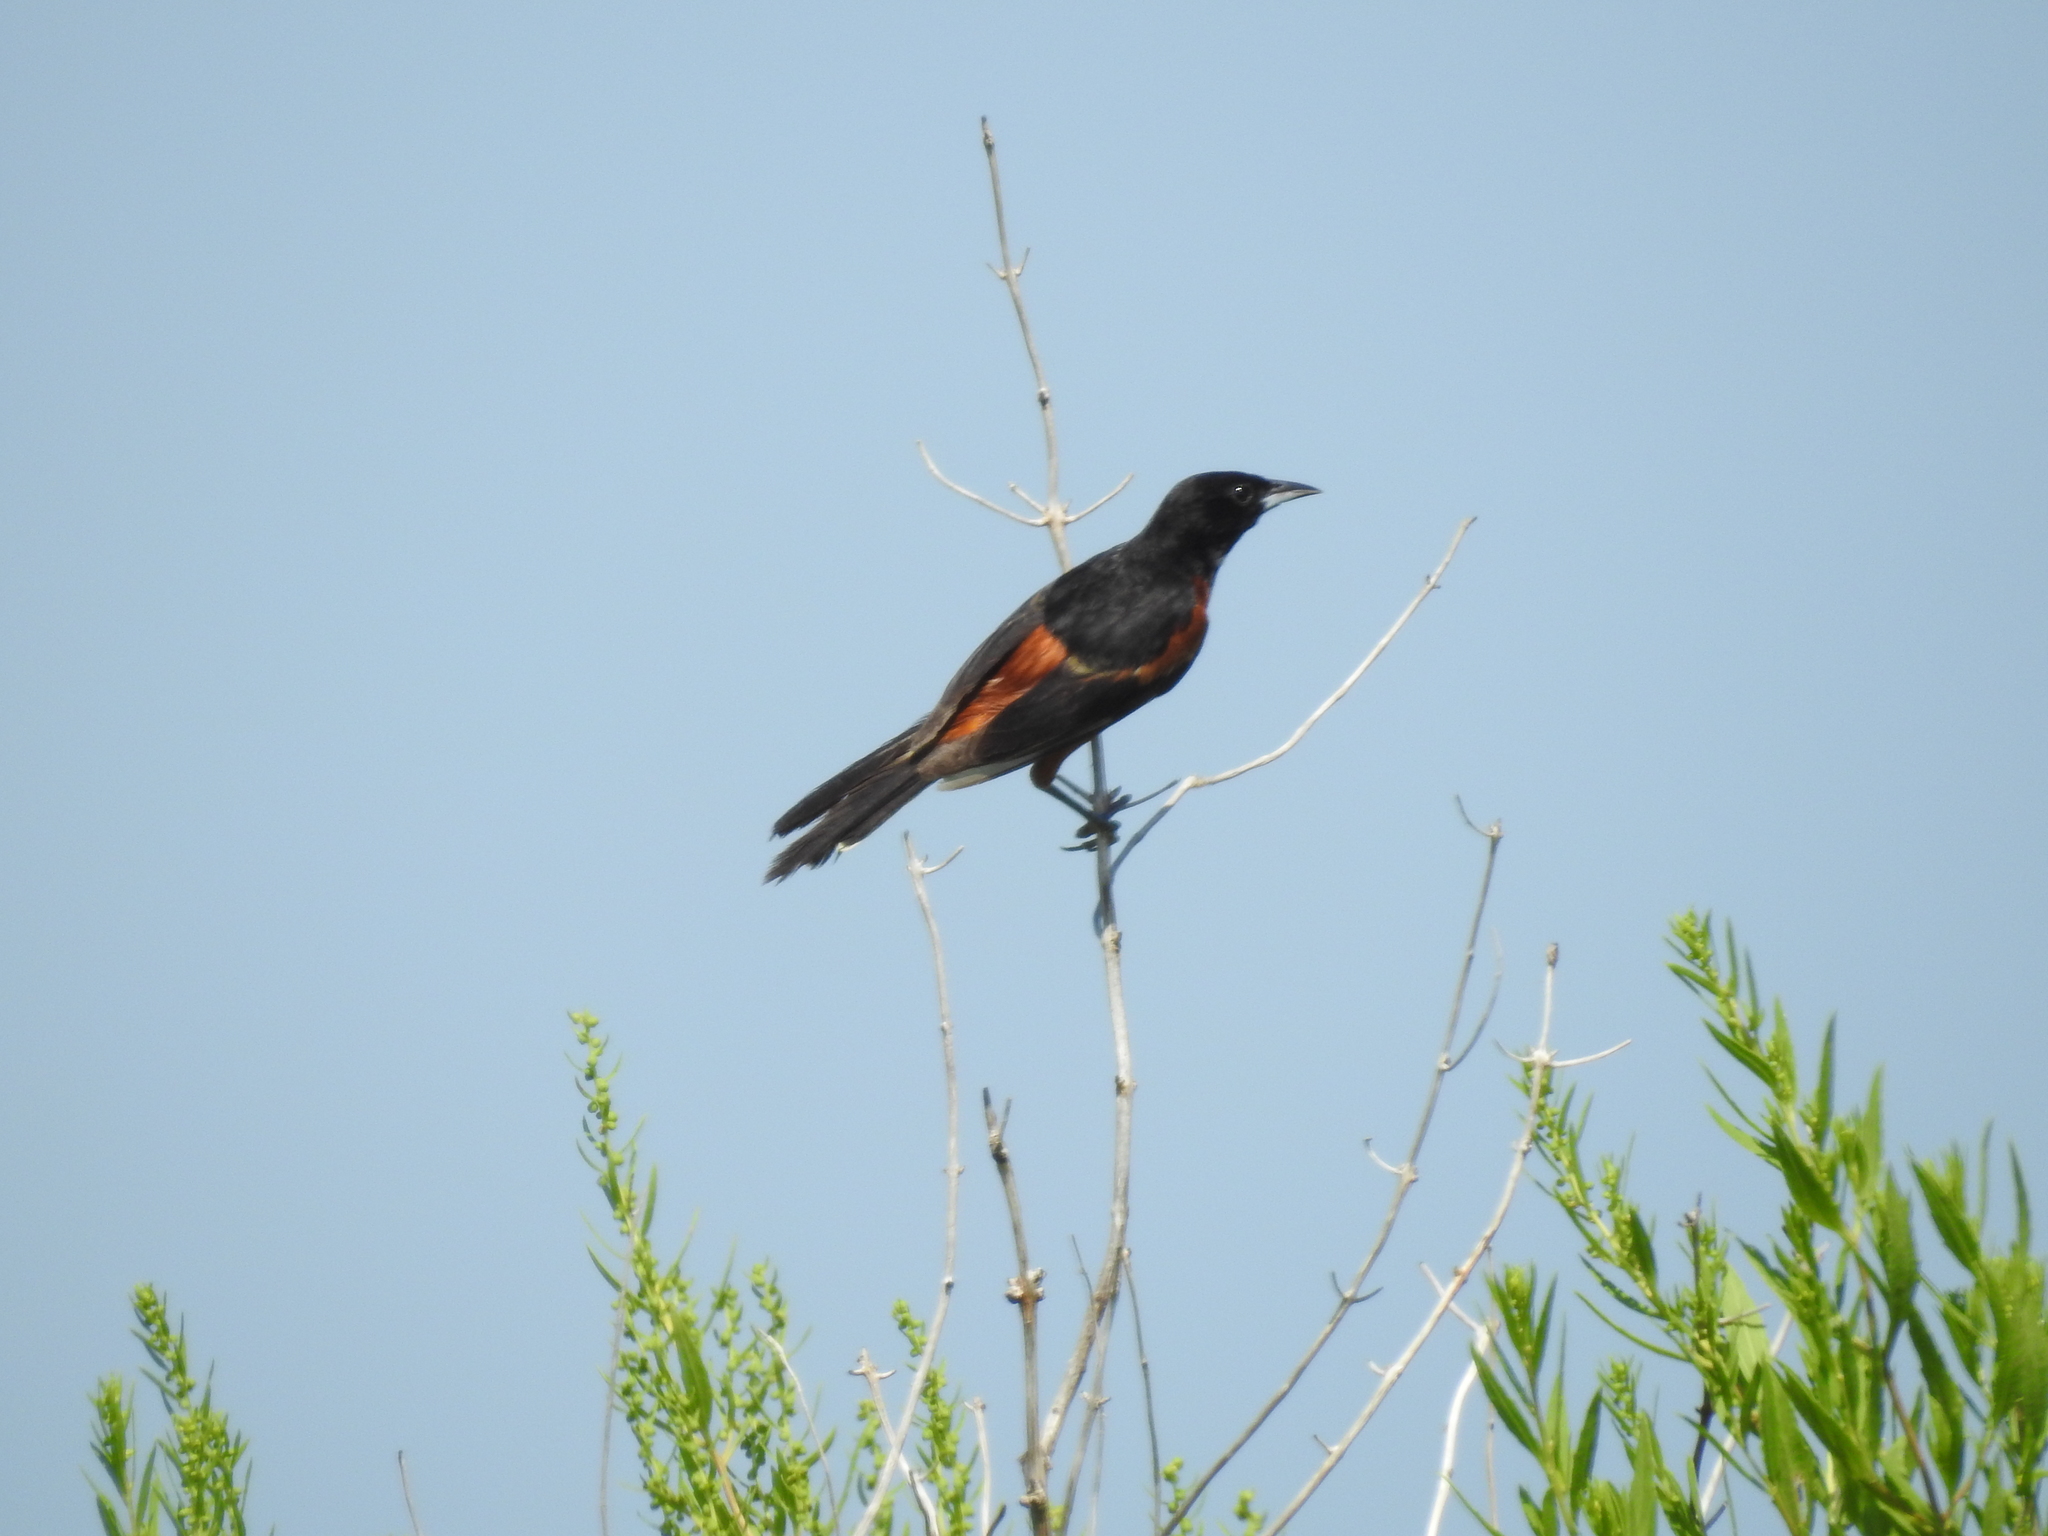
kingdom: Animalia
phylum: Chordata
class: Aves
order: Passeriformes
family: Icteridae
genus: Icterus
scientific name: Icterus spurius
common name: Orchard oriole
